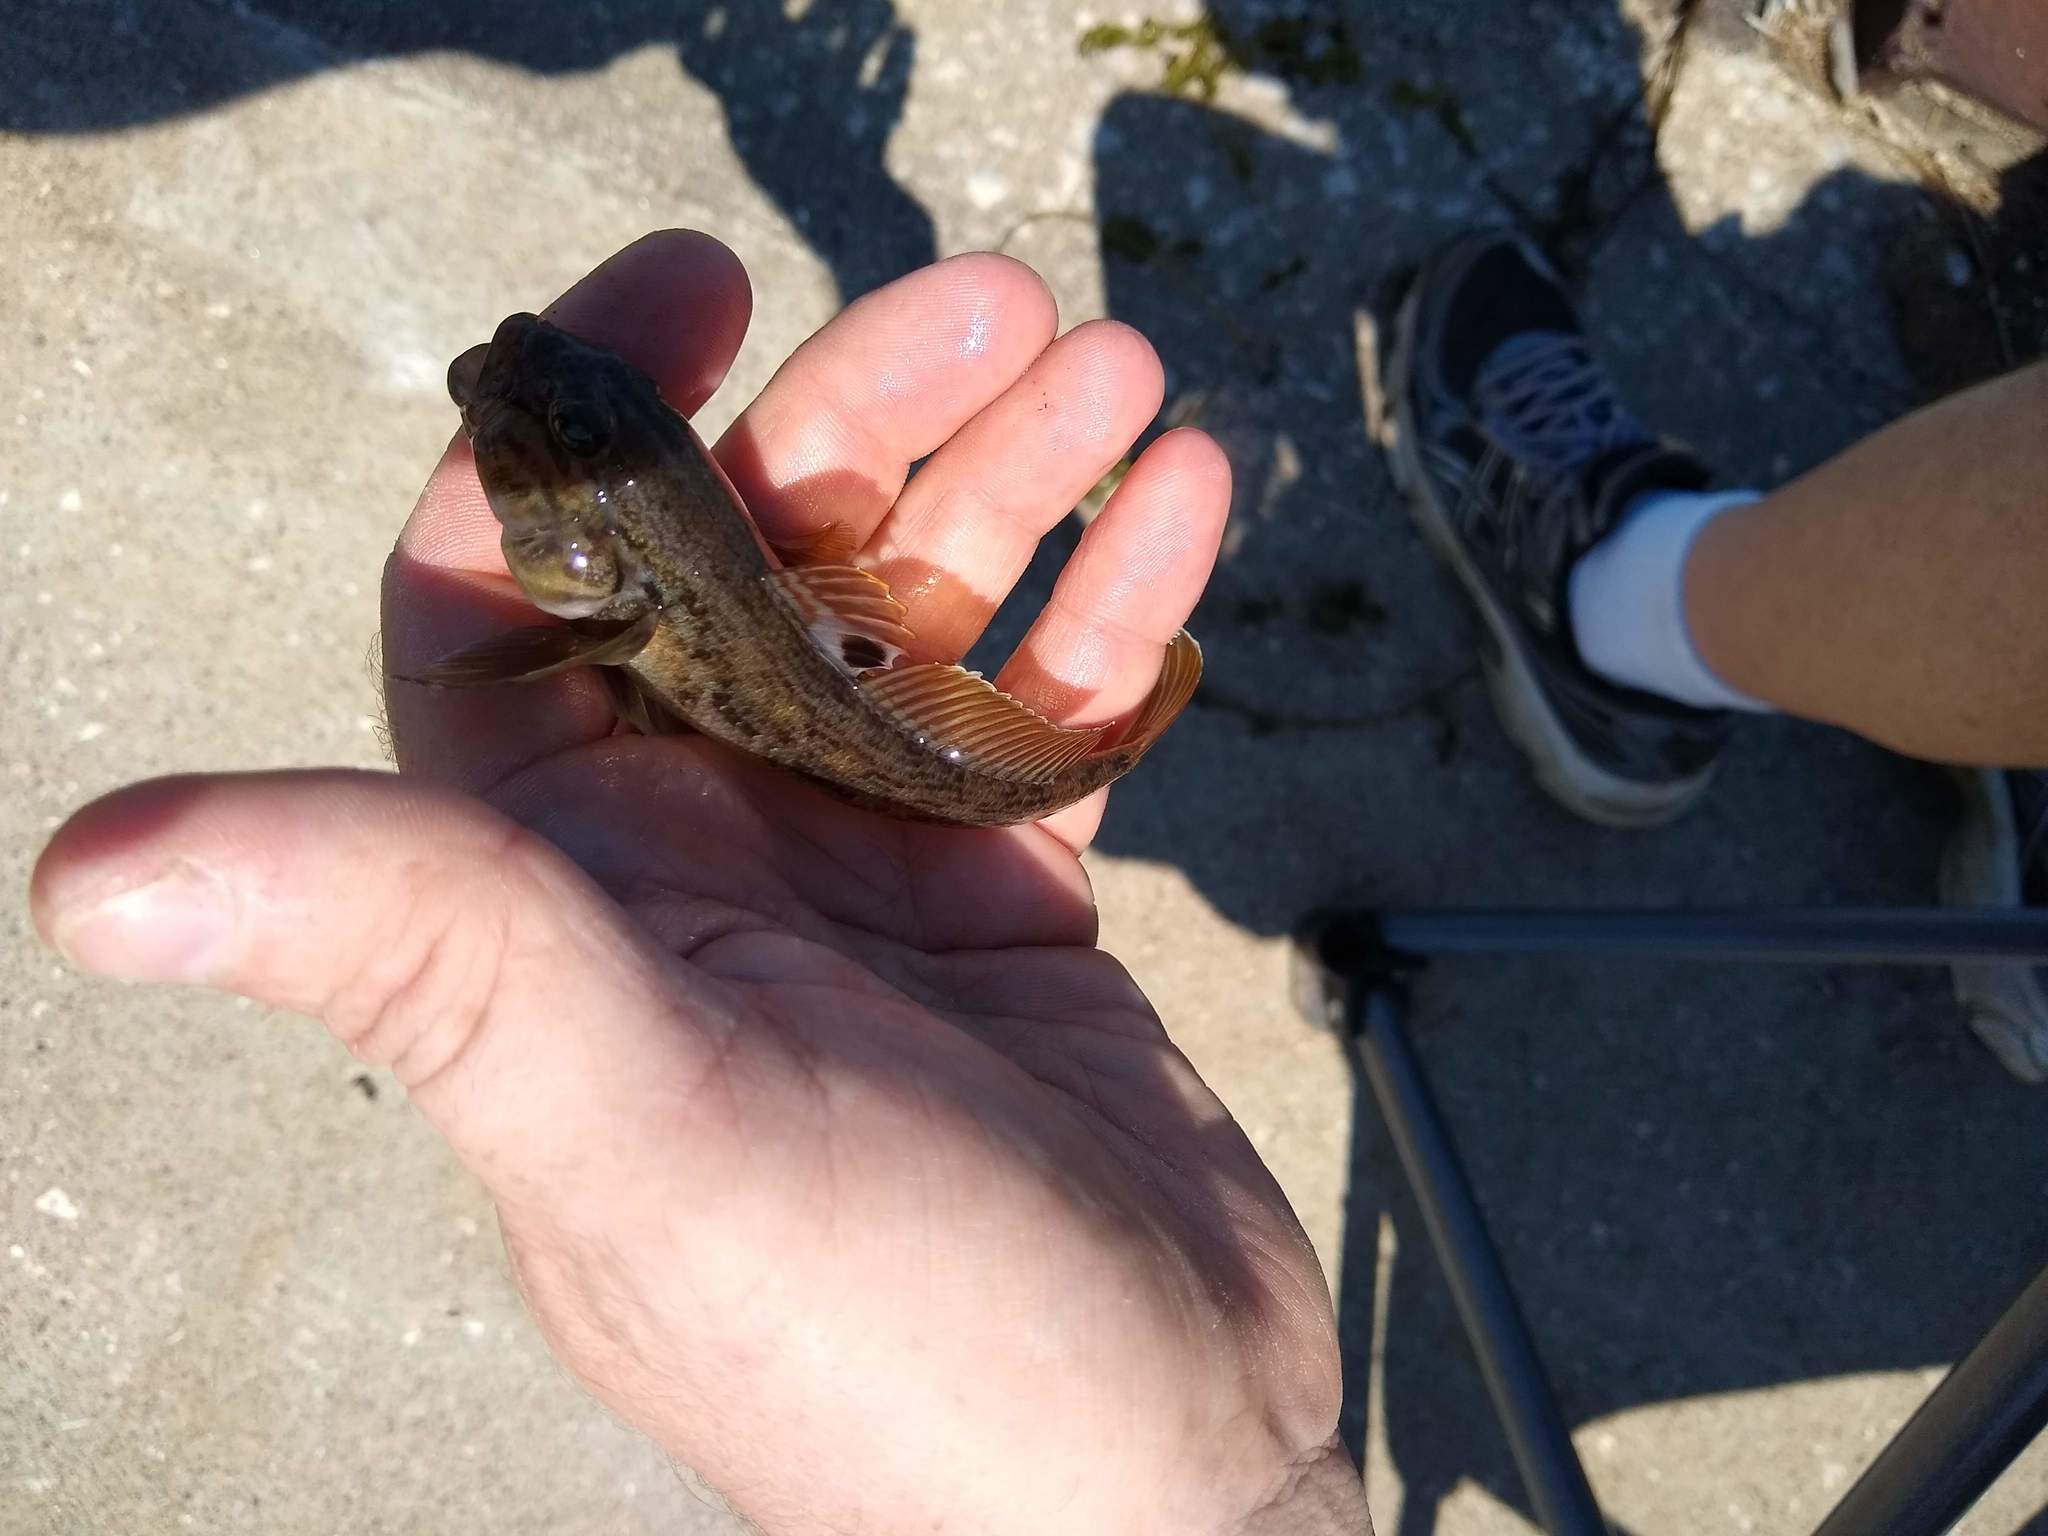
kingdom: Animalia
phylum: Chordata
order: Perciformes
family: Gobiidae
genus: Neogobius
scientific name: Neogobius melanostomus
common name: Round goby
